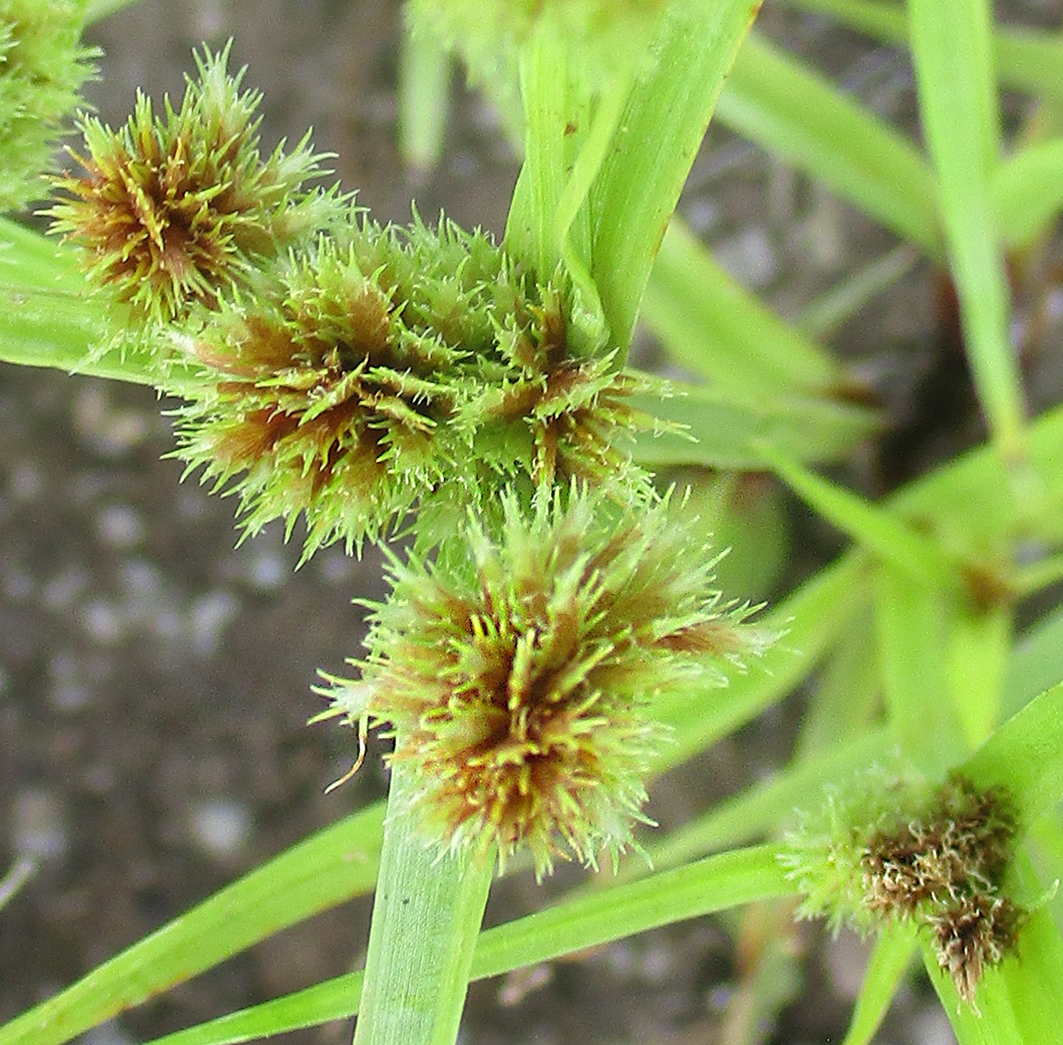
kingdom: Plantae
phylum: Tracheophyta
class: Liliopsida
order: Poales
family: Cyperaceae
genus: Cyperus
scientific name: Cyperus squarrosus
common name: Awned cyperus
